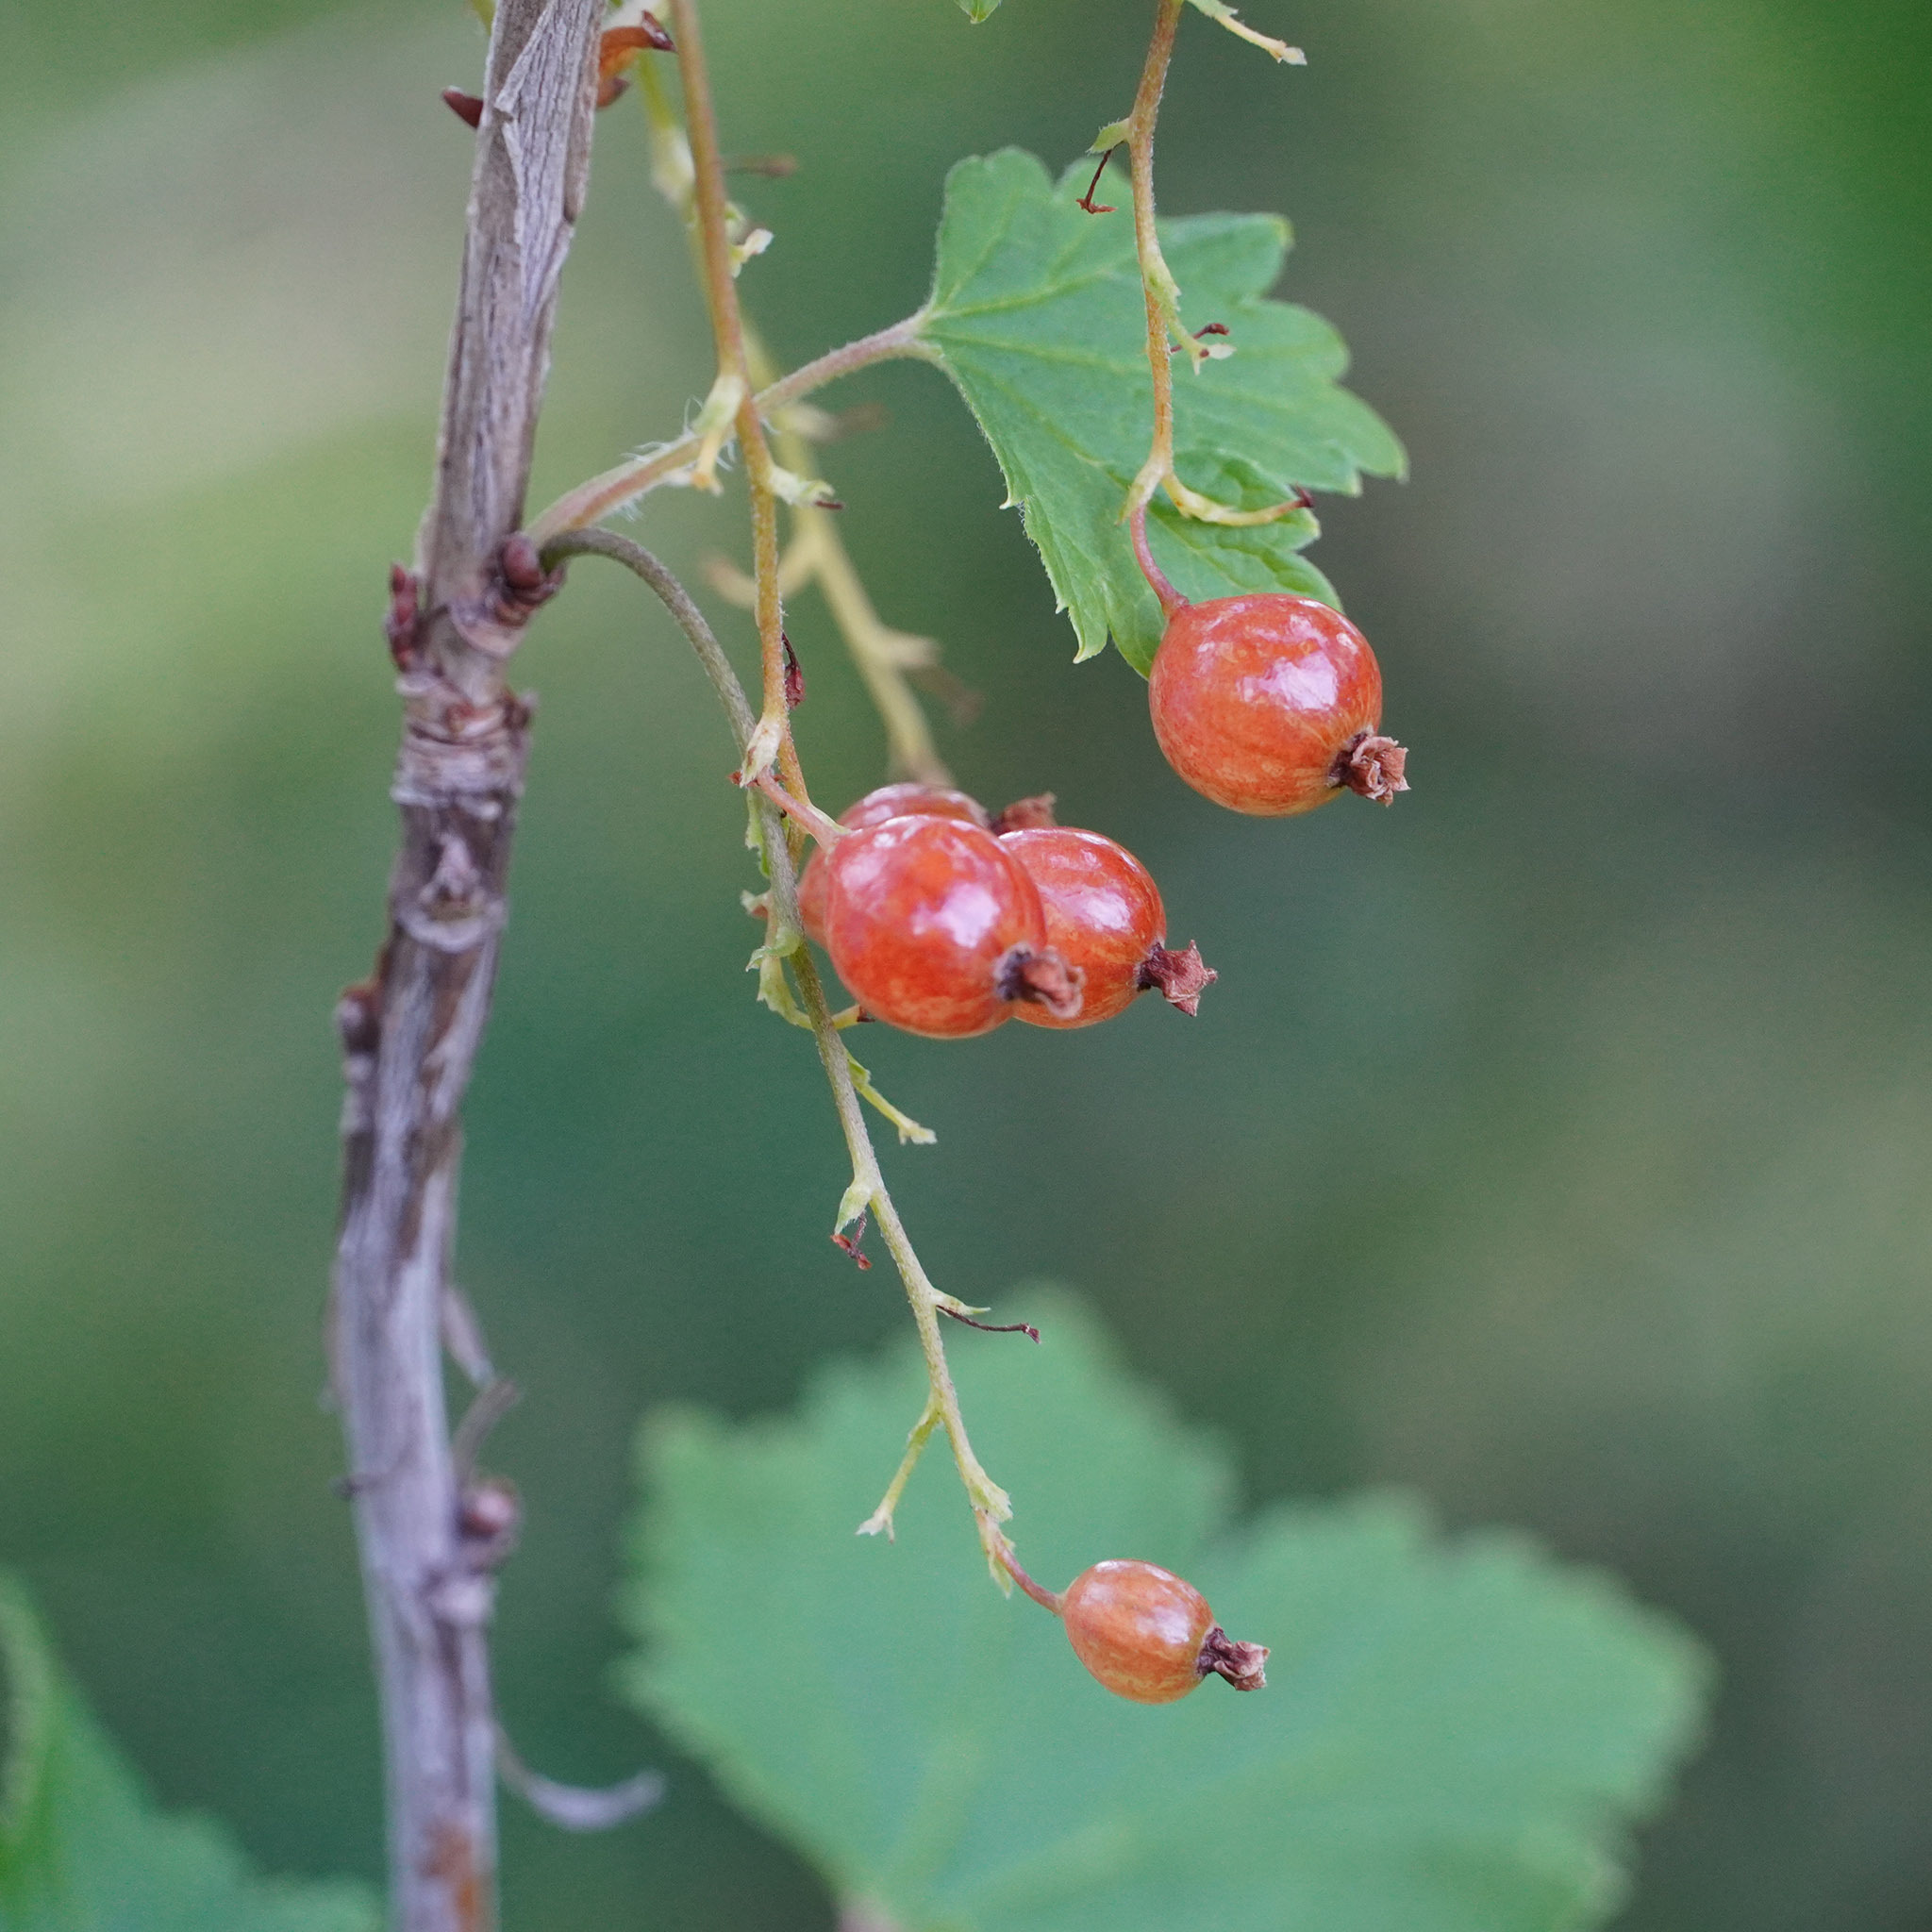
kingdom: Plantae
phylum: Tracheophyta
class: Magnoliopsida
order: Saxifragales
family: Grossulariaceae
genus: Ribes
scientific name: Ribes rubrum
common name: Red currant
